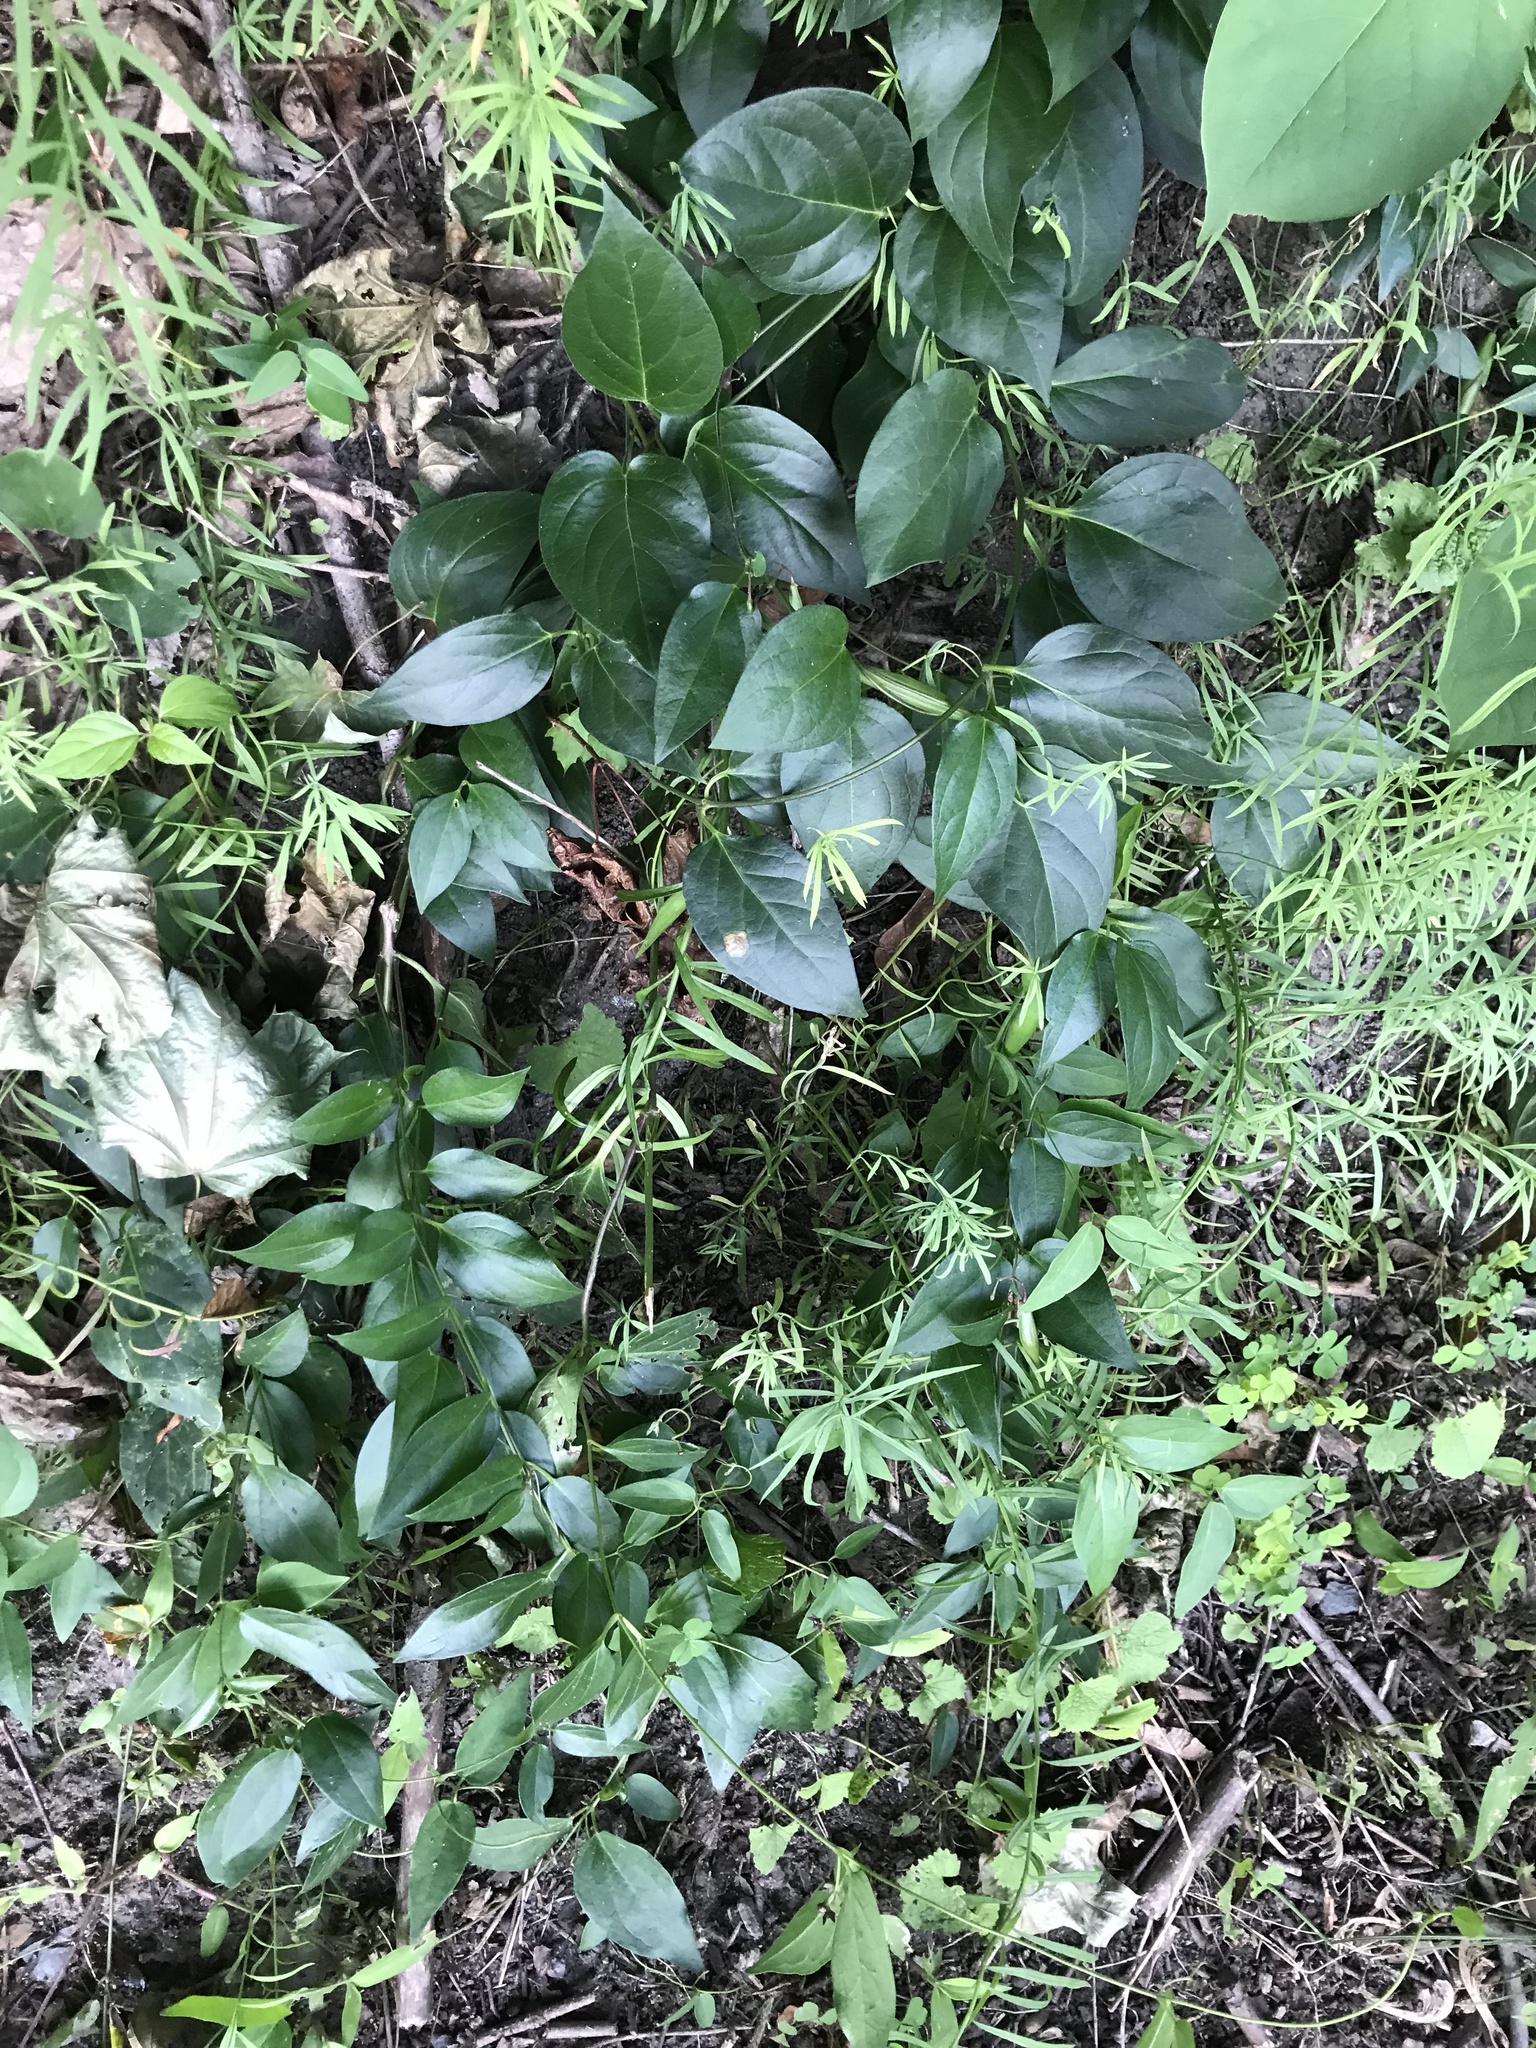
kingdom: Plantae
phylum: Tracheophyta
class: Magnoliopsida
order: Gentianales
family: Apocynaceae
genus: Vincetoxicum
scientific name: Vincetoxicum nigrum
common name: Black swallow-wort
